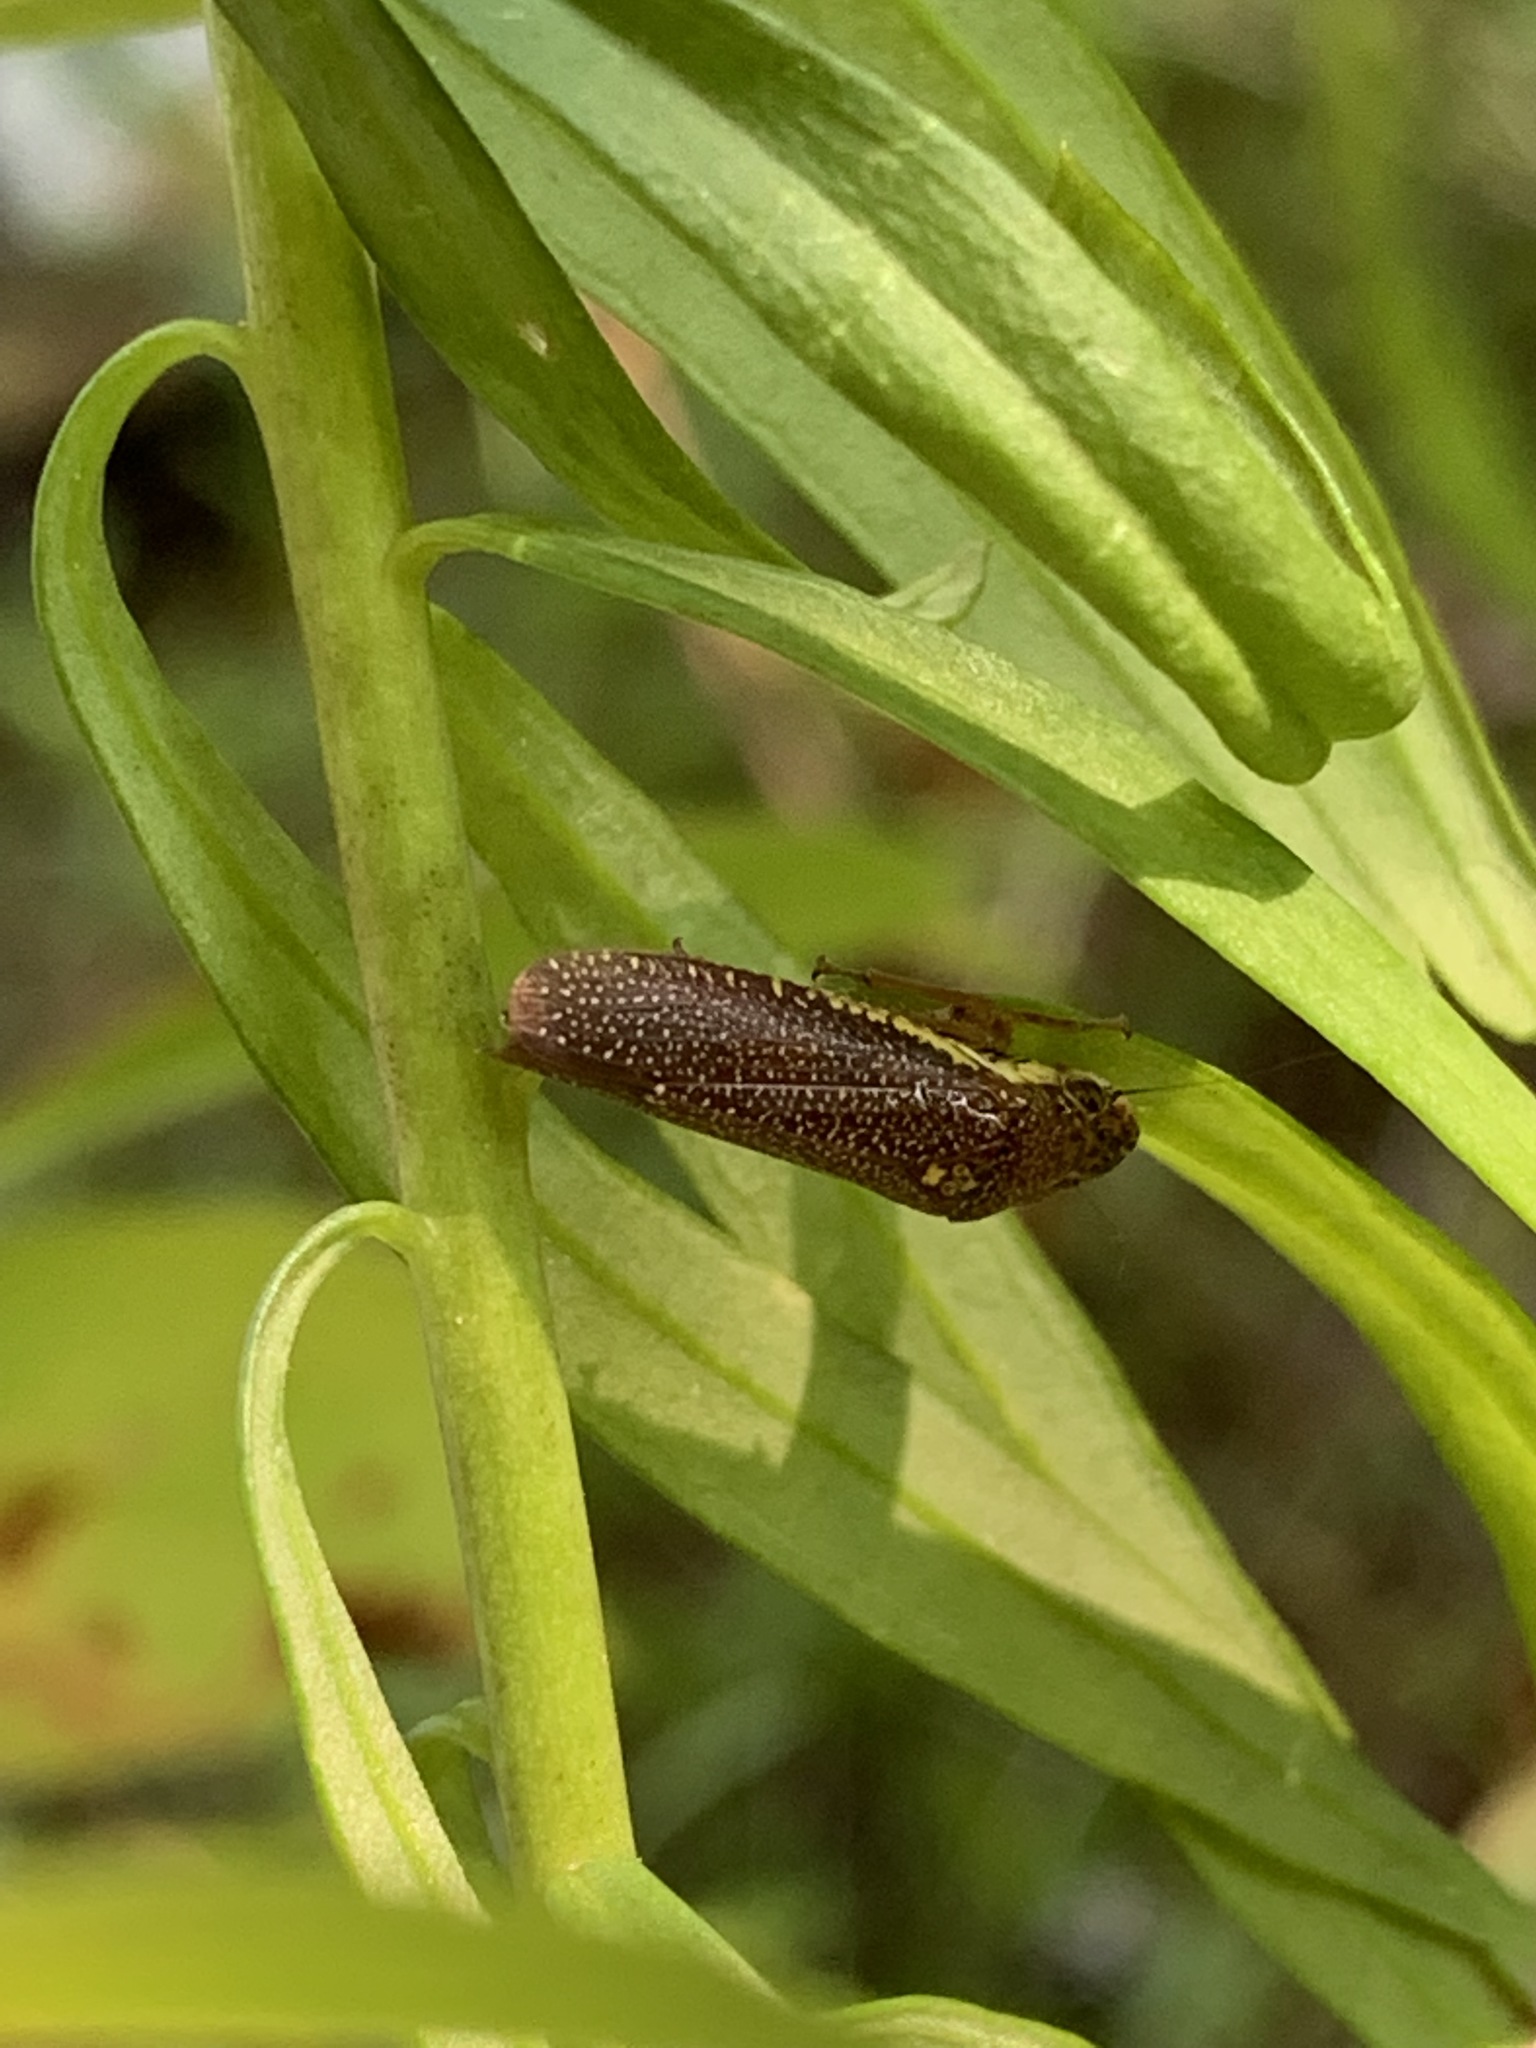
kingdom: Animalia
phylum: Arthropoda
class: Insecta
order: Hemiptera
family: Cicadellidae
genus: Paraulacizes
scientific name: Paraulacizes irrorata
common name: Speckled sharpshooter
